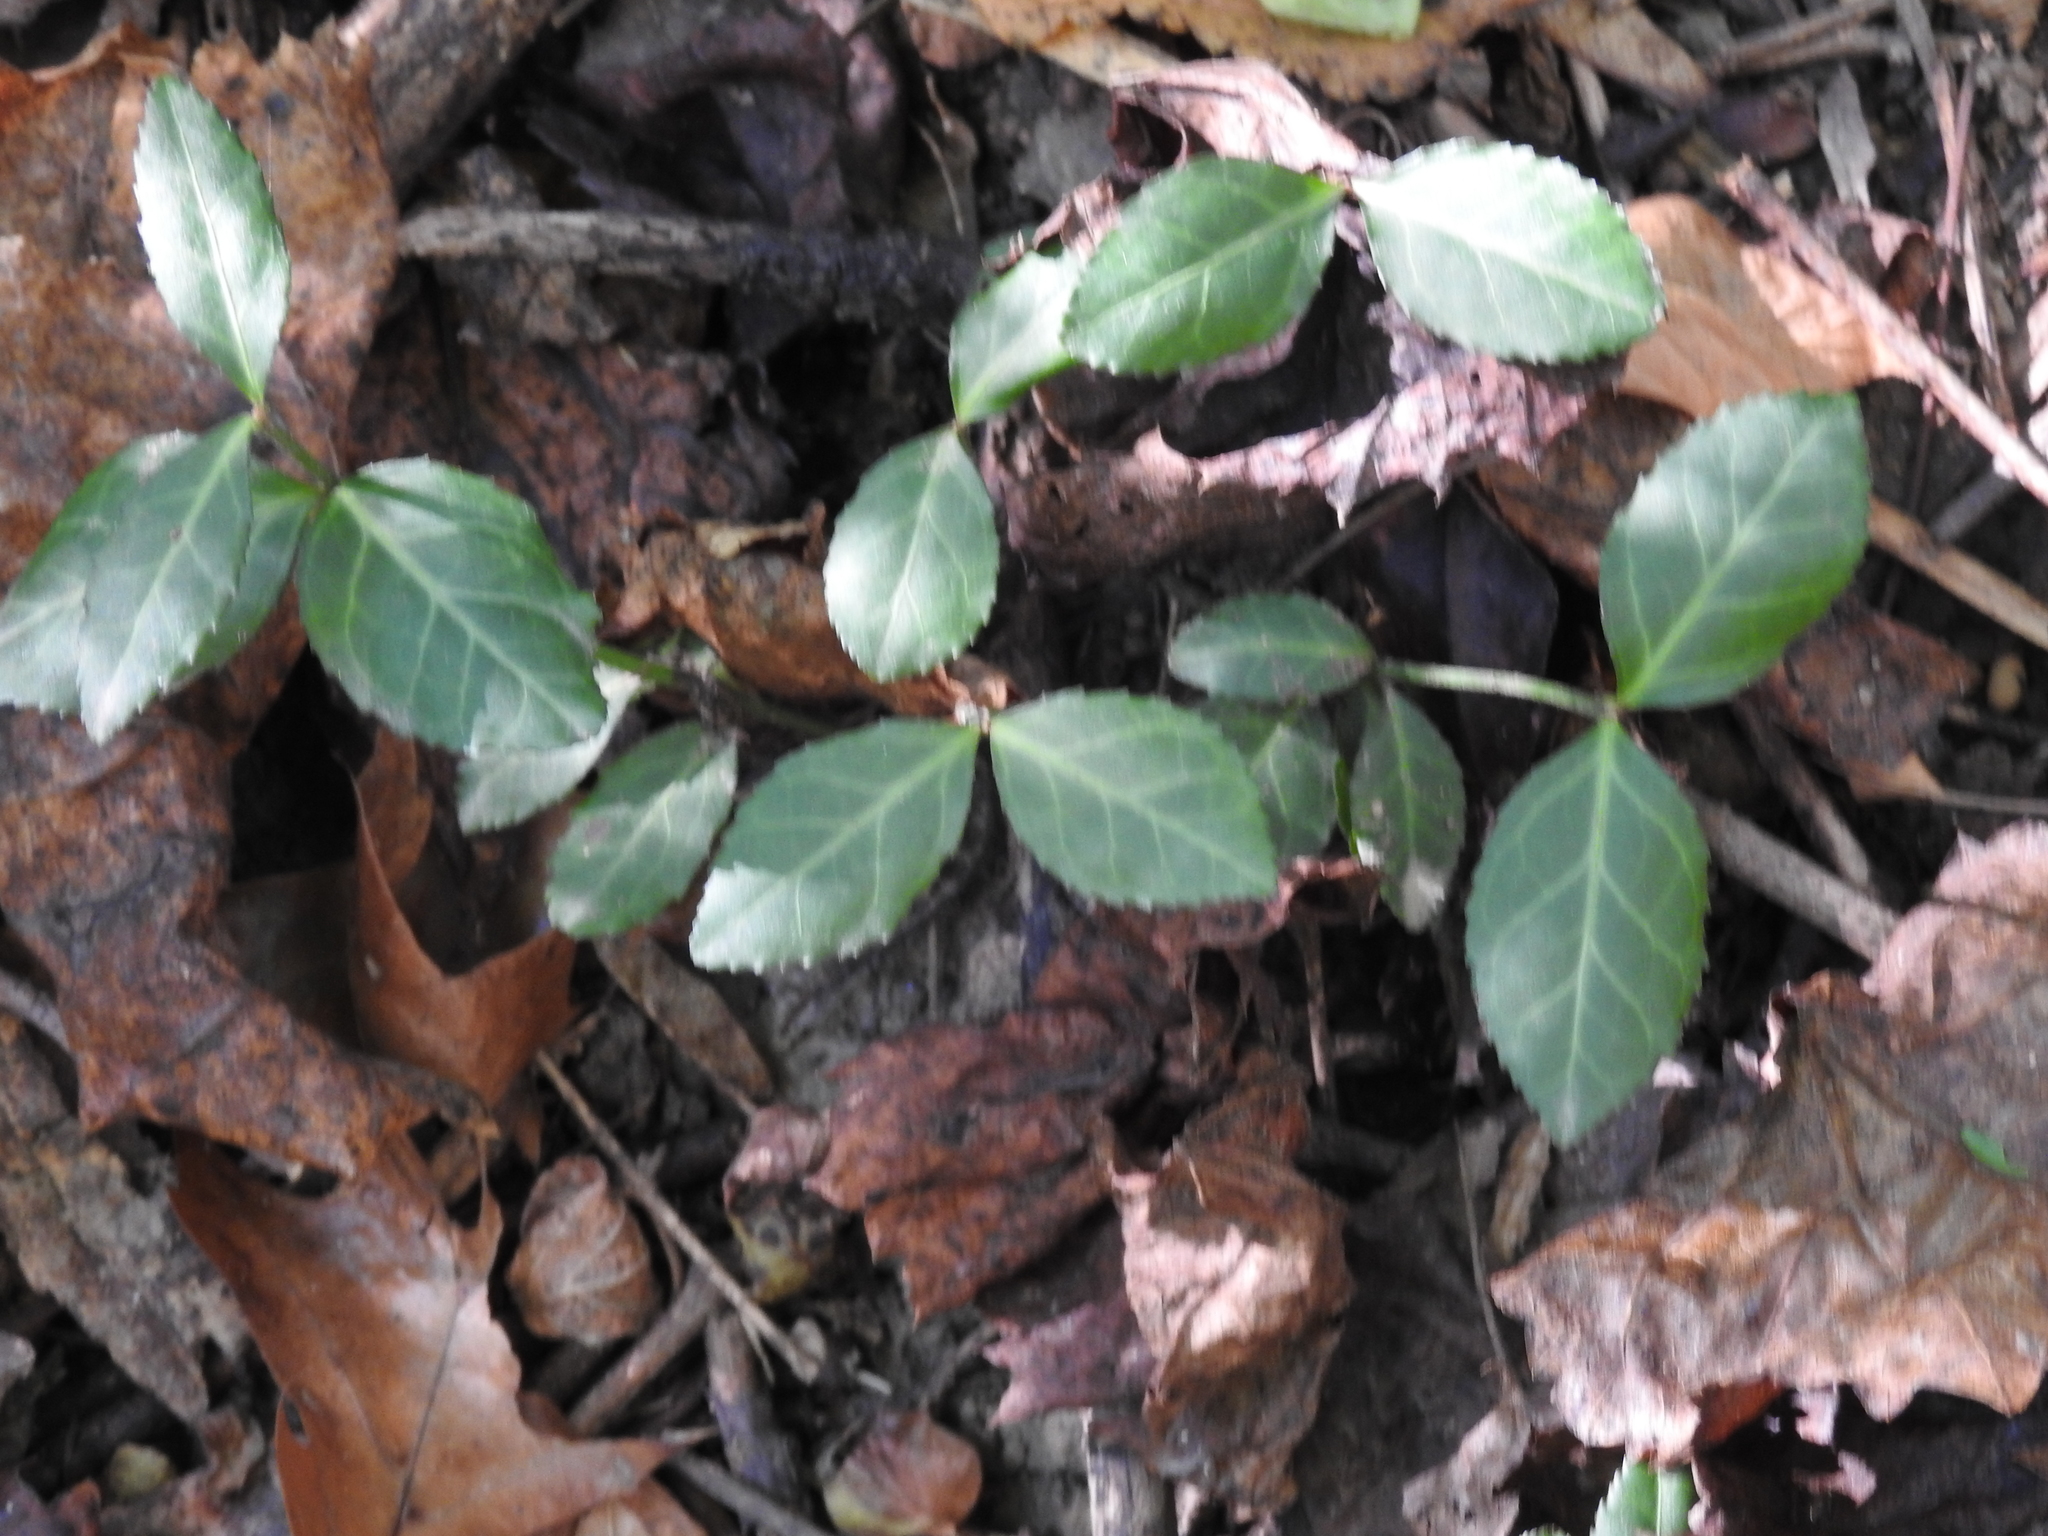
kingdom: Plantae
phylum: Tracheophyta
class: Magnoliopsida
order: Celastrales
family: Celastraceae
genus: Euonymus
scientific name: Euonymus fortunei
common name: Climbing euonymus
